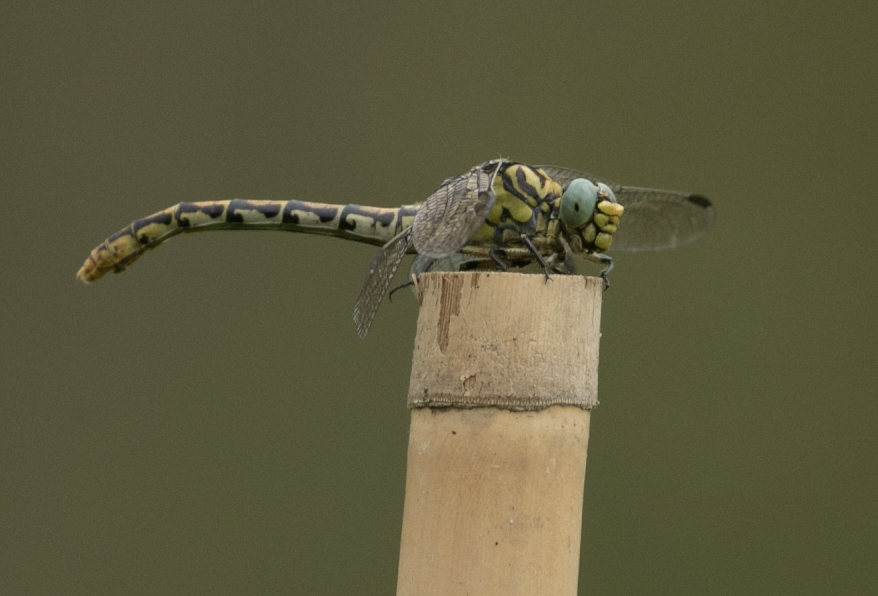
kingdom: Animalia
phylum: Arthropoda
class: Insecta
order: Odonata
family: Gomphidae
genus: Onychogomphus
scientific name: Onychogomphus forcipatus
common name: Small pincertail
